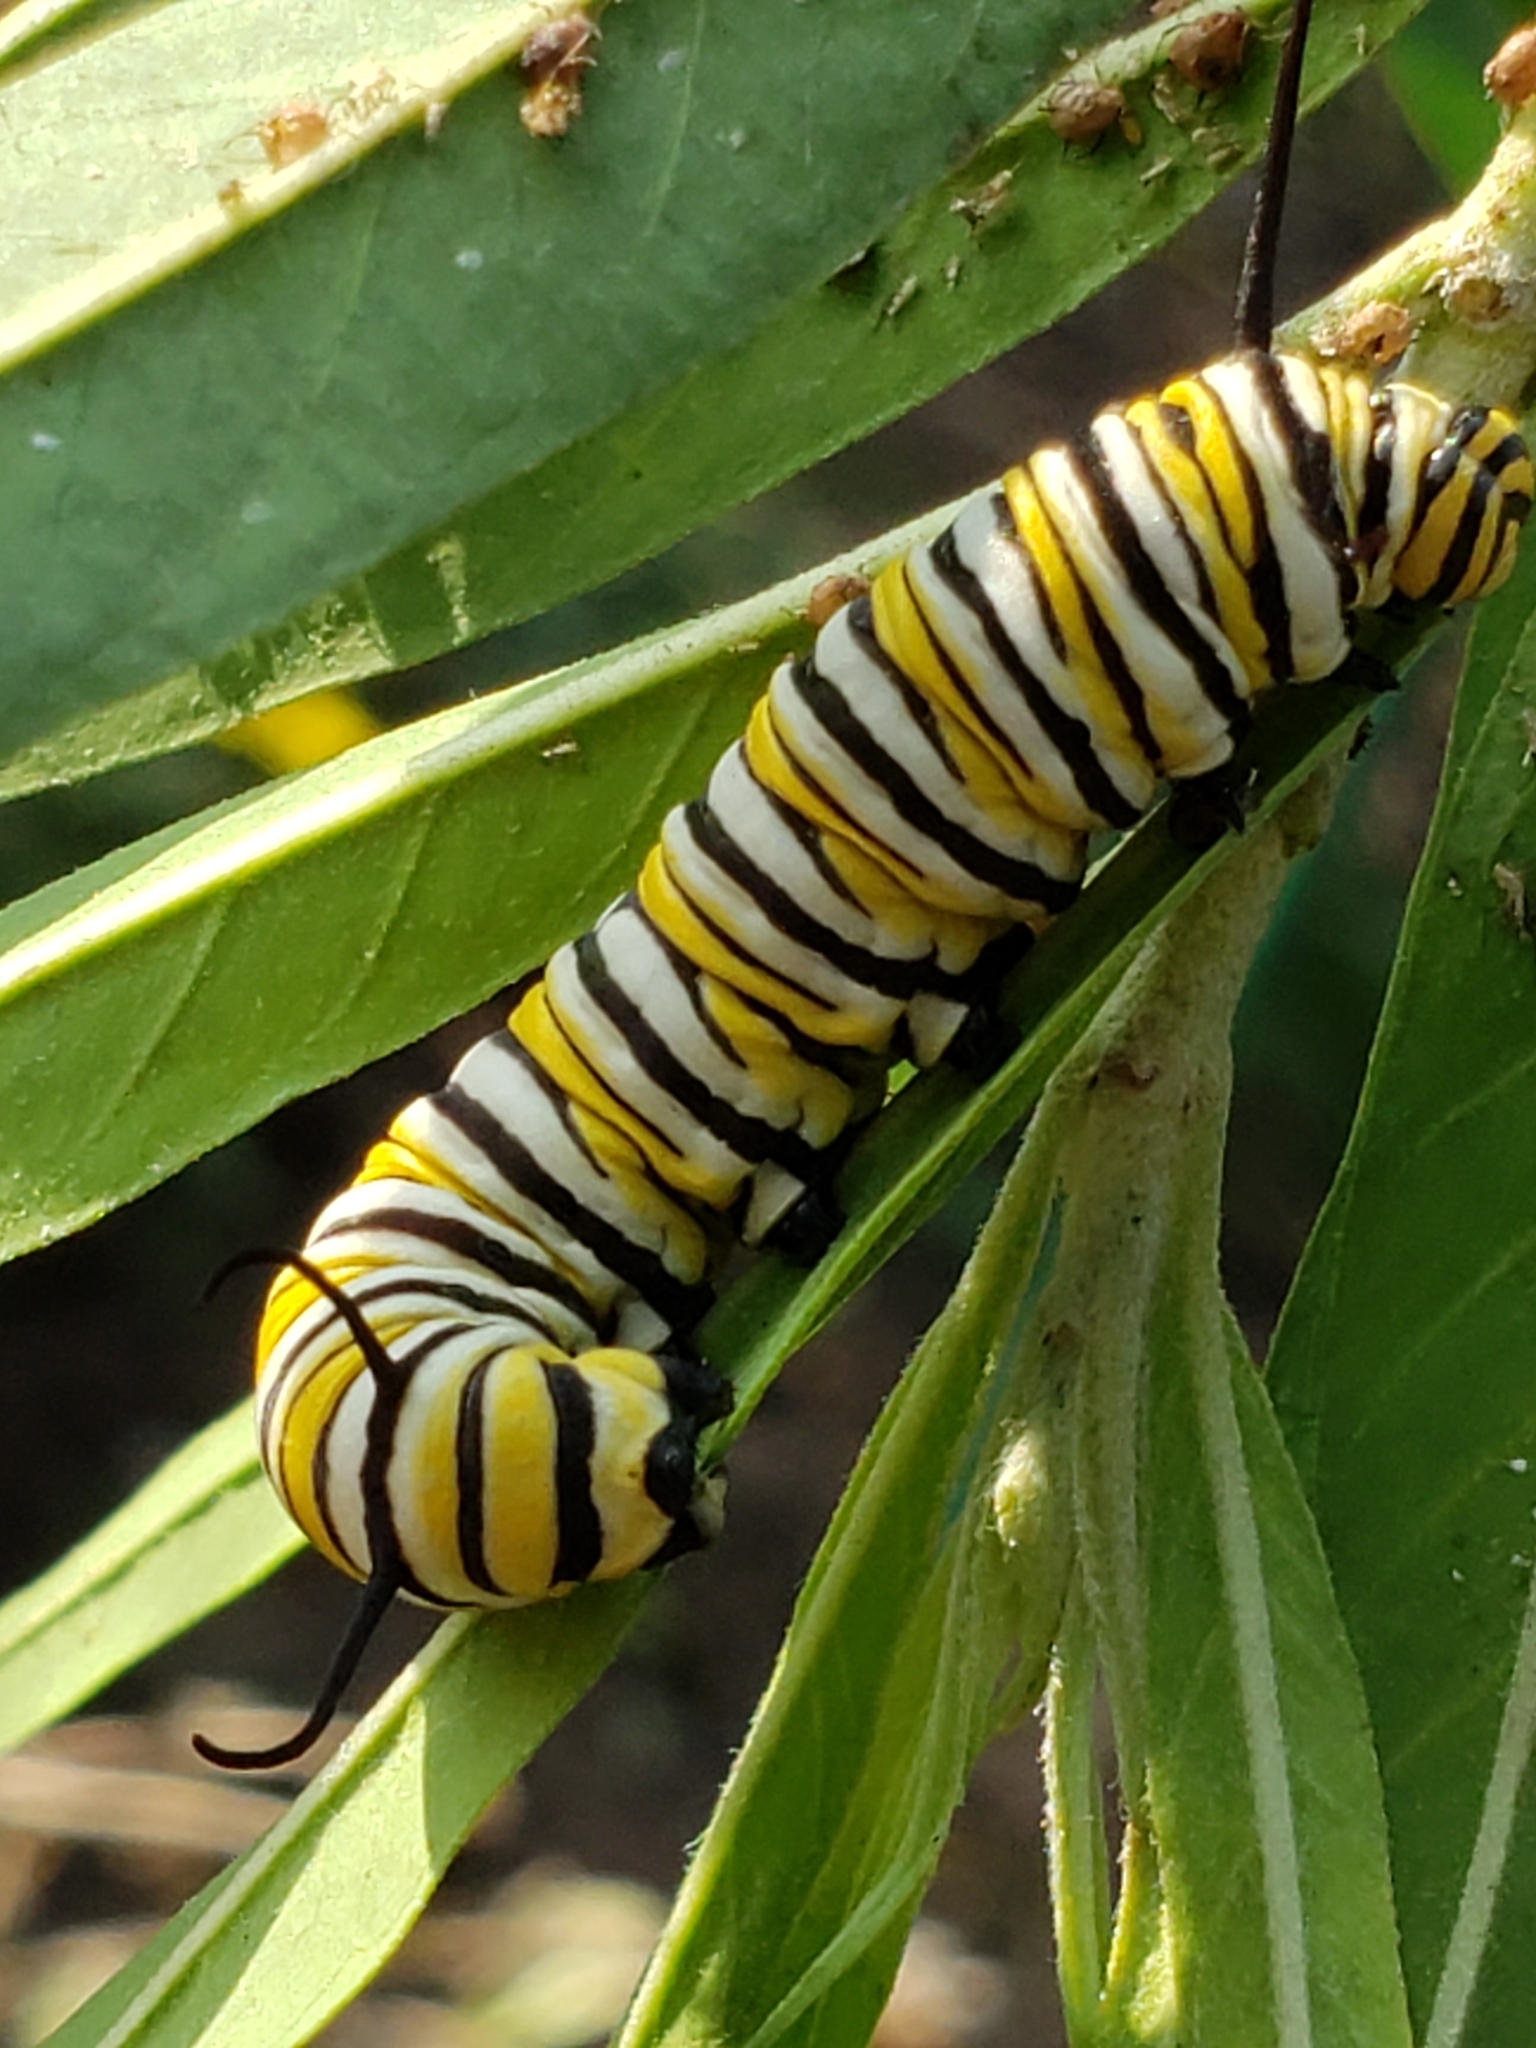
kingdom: Animalia
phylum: Arthropoda
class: Insecta
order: Lepidoptera
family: Nymphalidae
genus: Danaus
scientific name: Danaus plexippus
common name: Monarch
